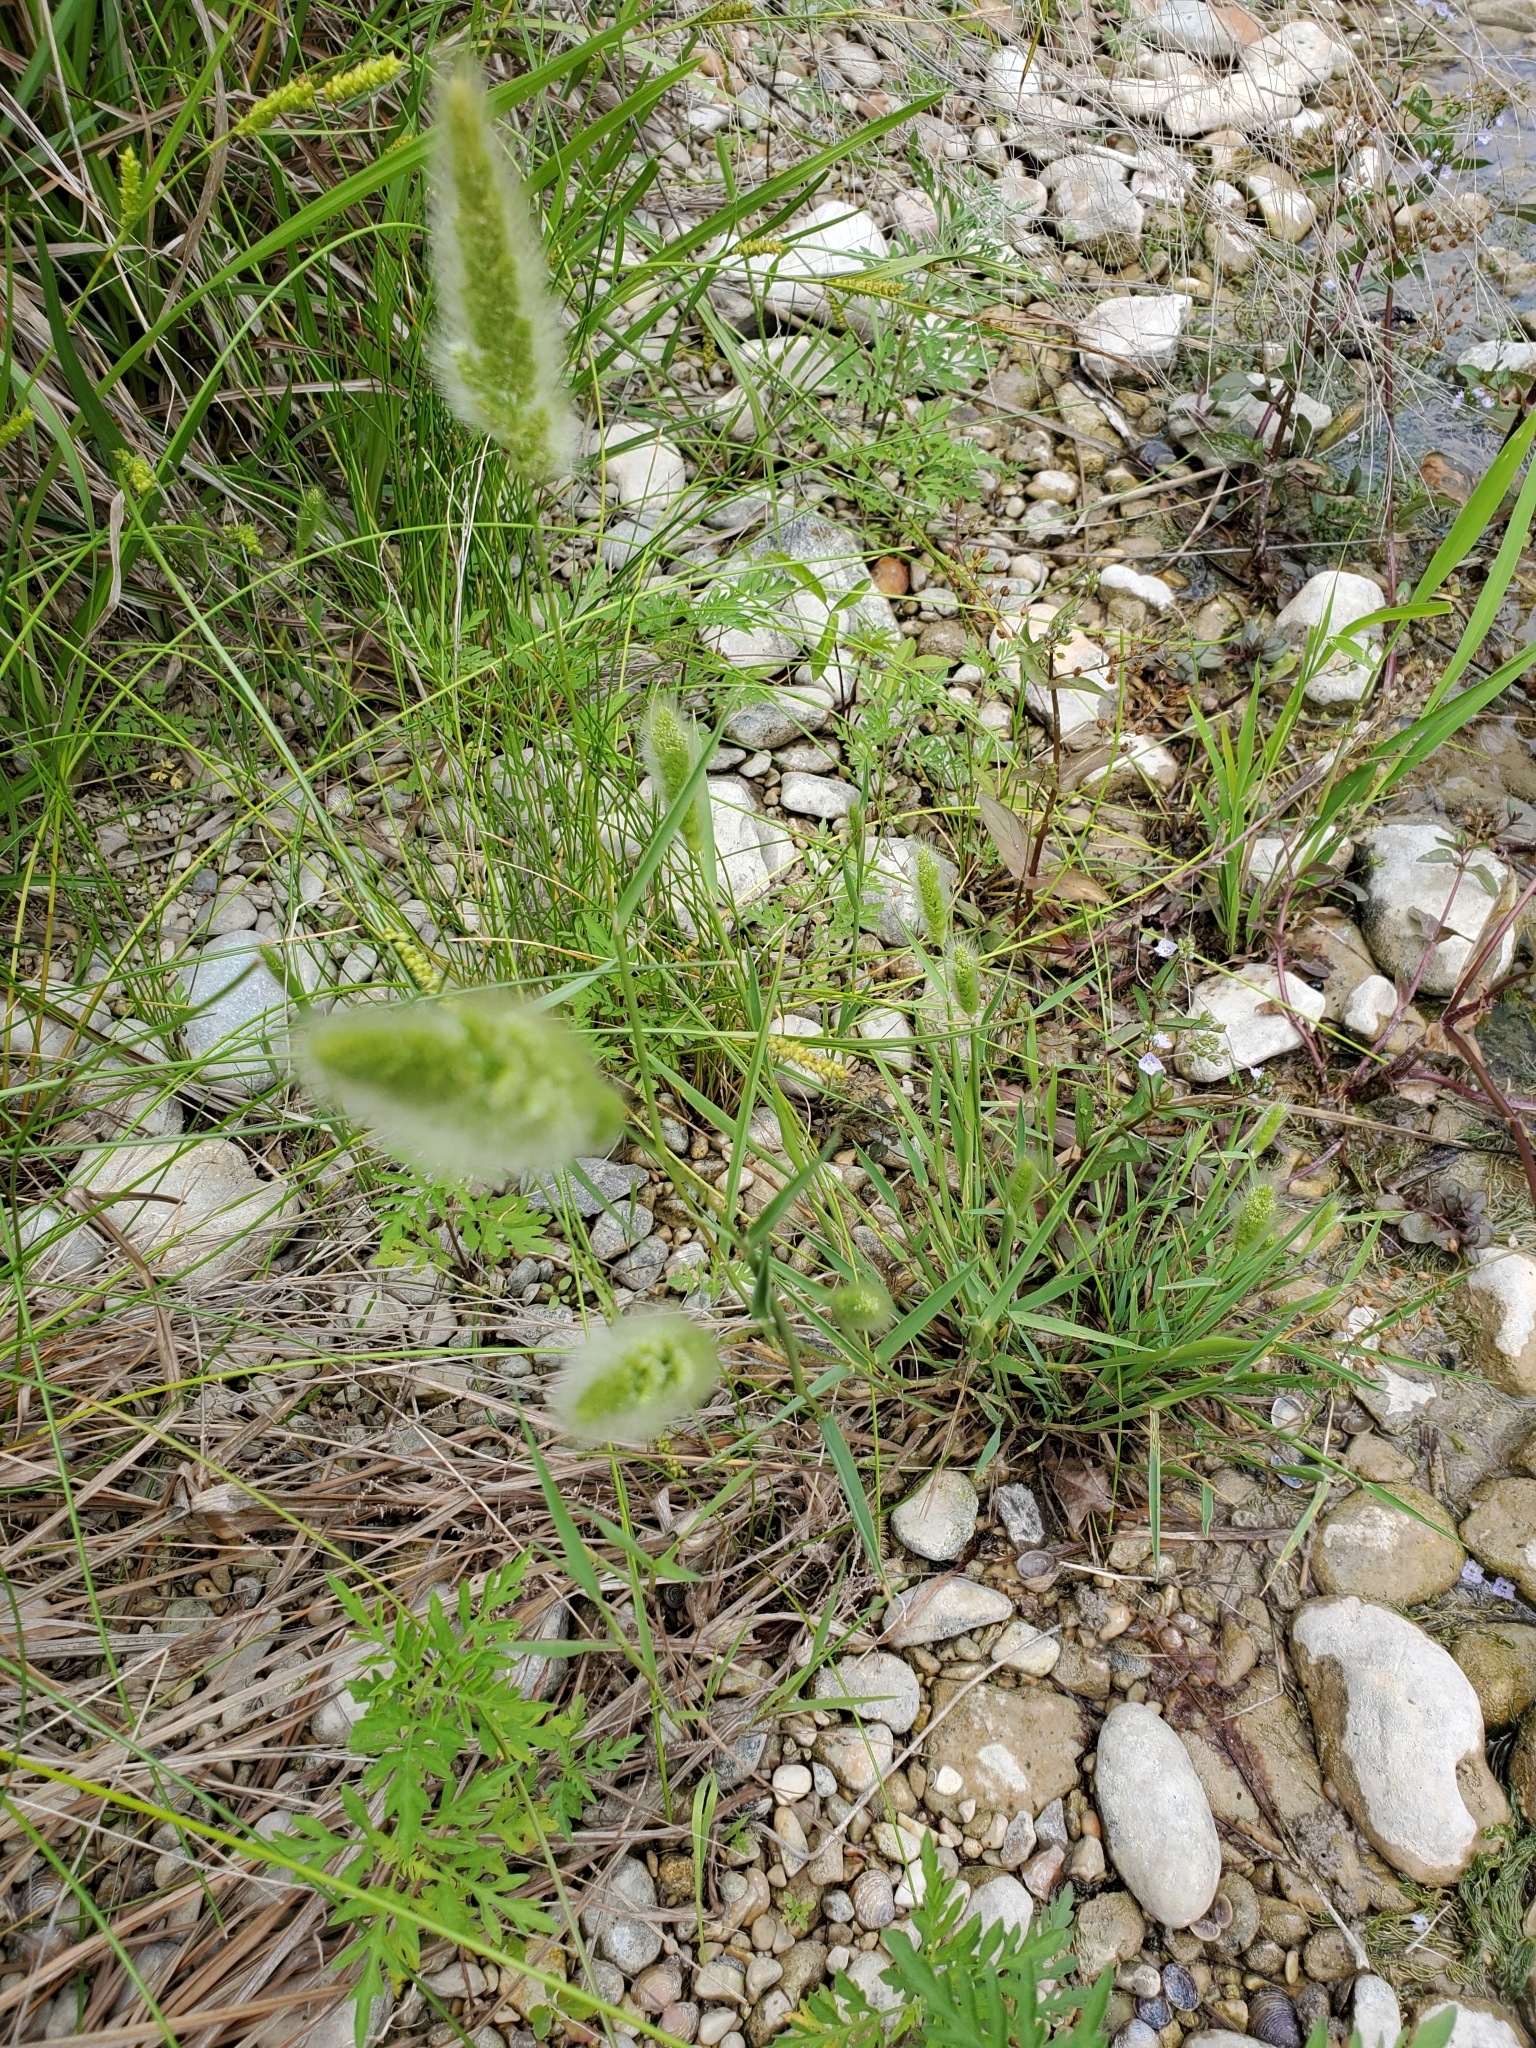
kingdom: Plantae
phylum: Tracheophyta
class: Liliopsida
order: Poales
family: Poaceae
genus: Polypogon
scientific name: Polypogon monspeliensis
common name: Annual rabbitsfoot grass
